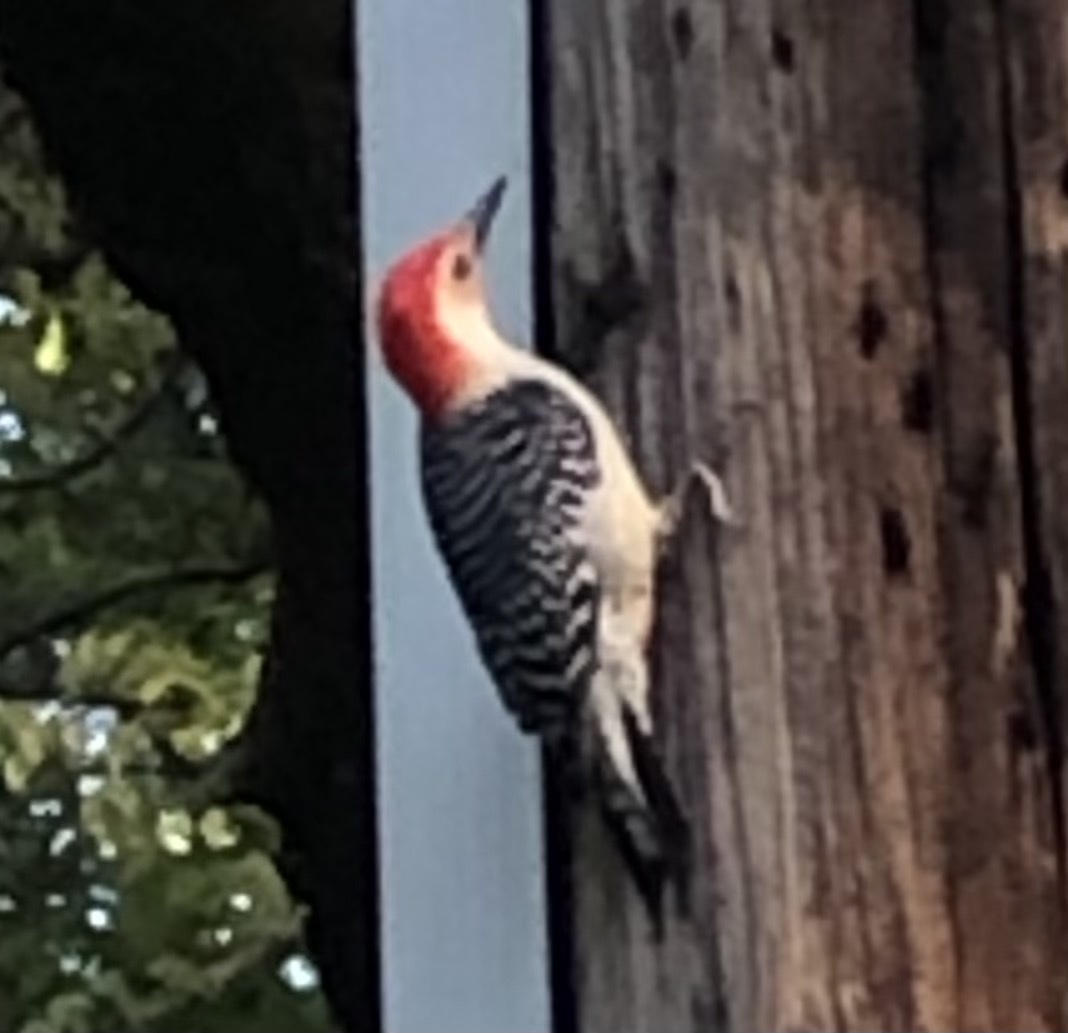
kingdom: Animalia
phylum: Chordata
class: Aves
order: Piciformes
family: Picidae
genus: Melanerpes
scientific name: Melanerpes carolinus
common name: Red-bellied woodpecker
